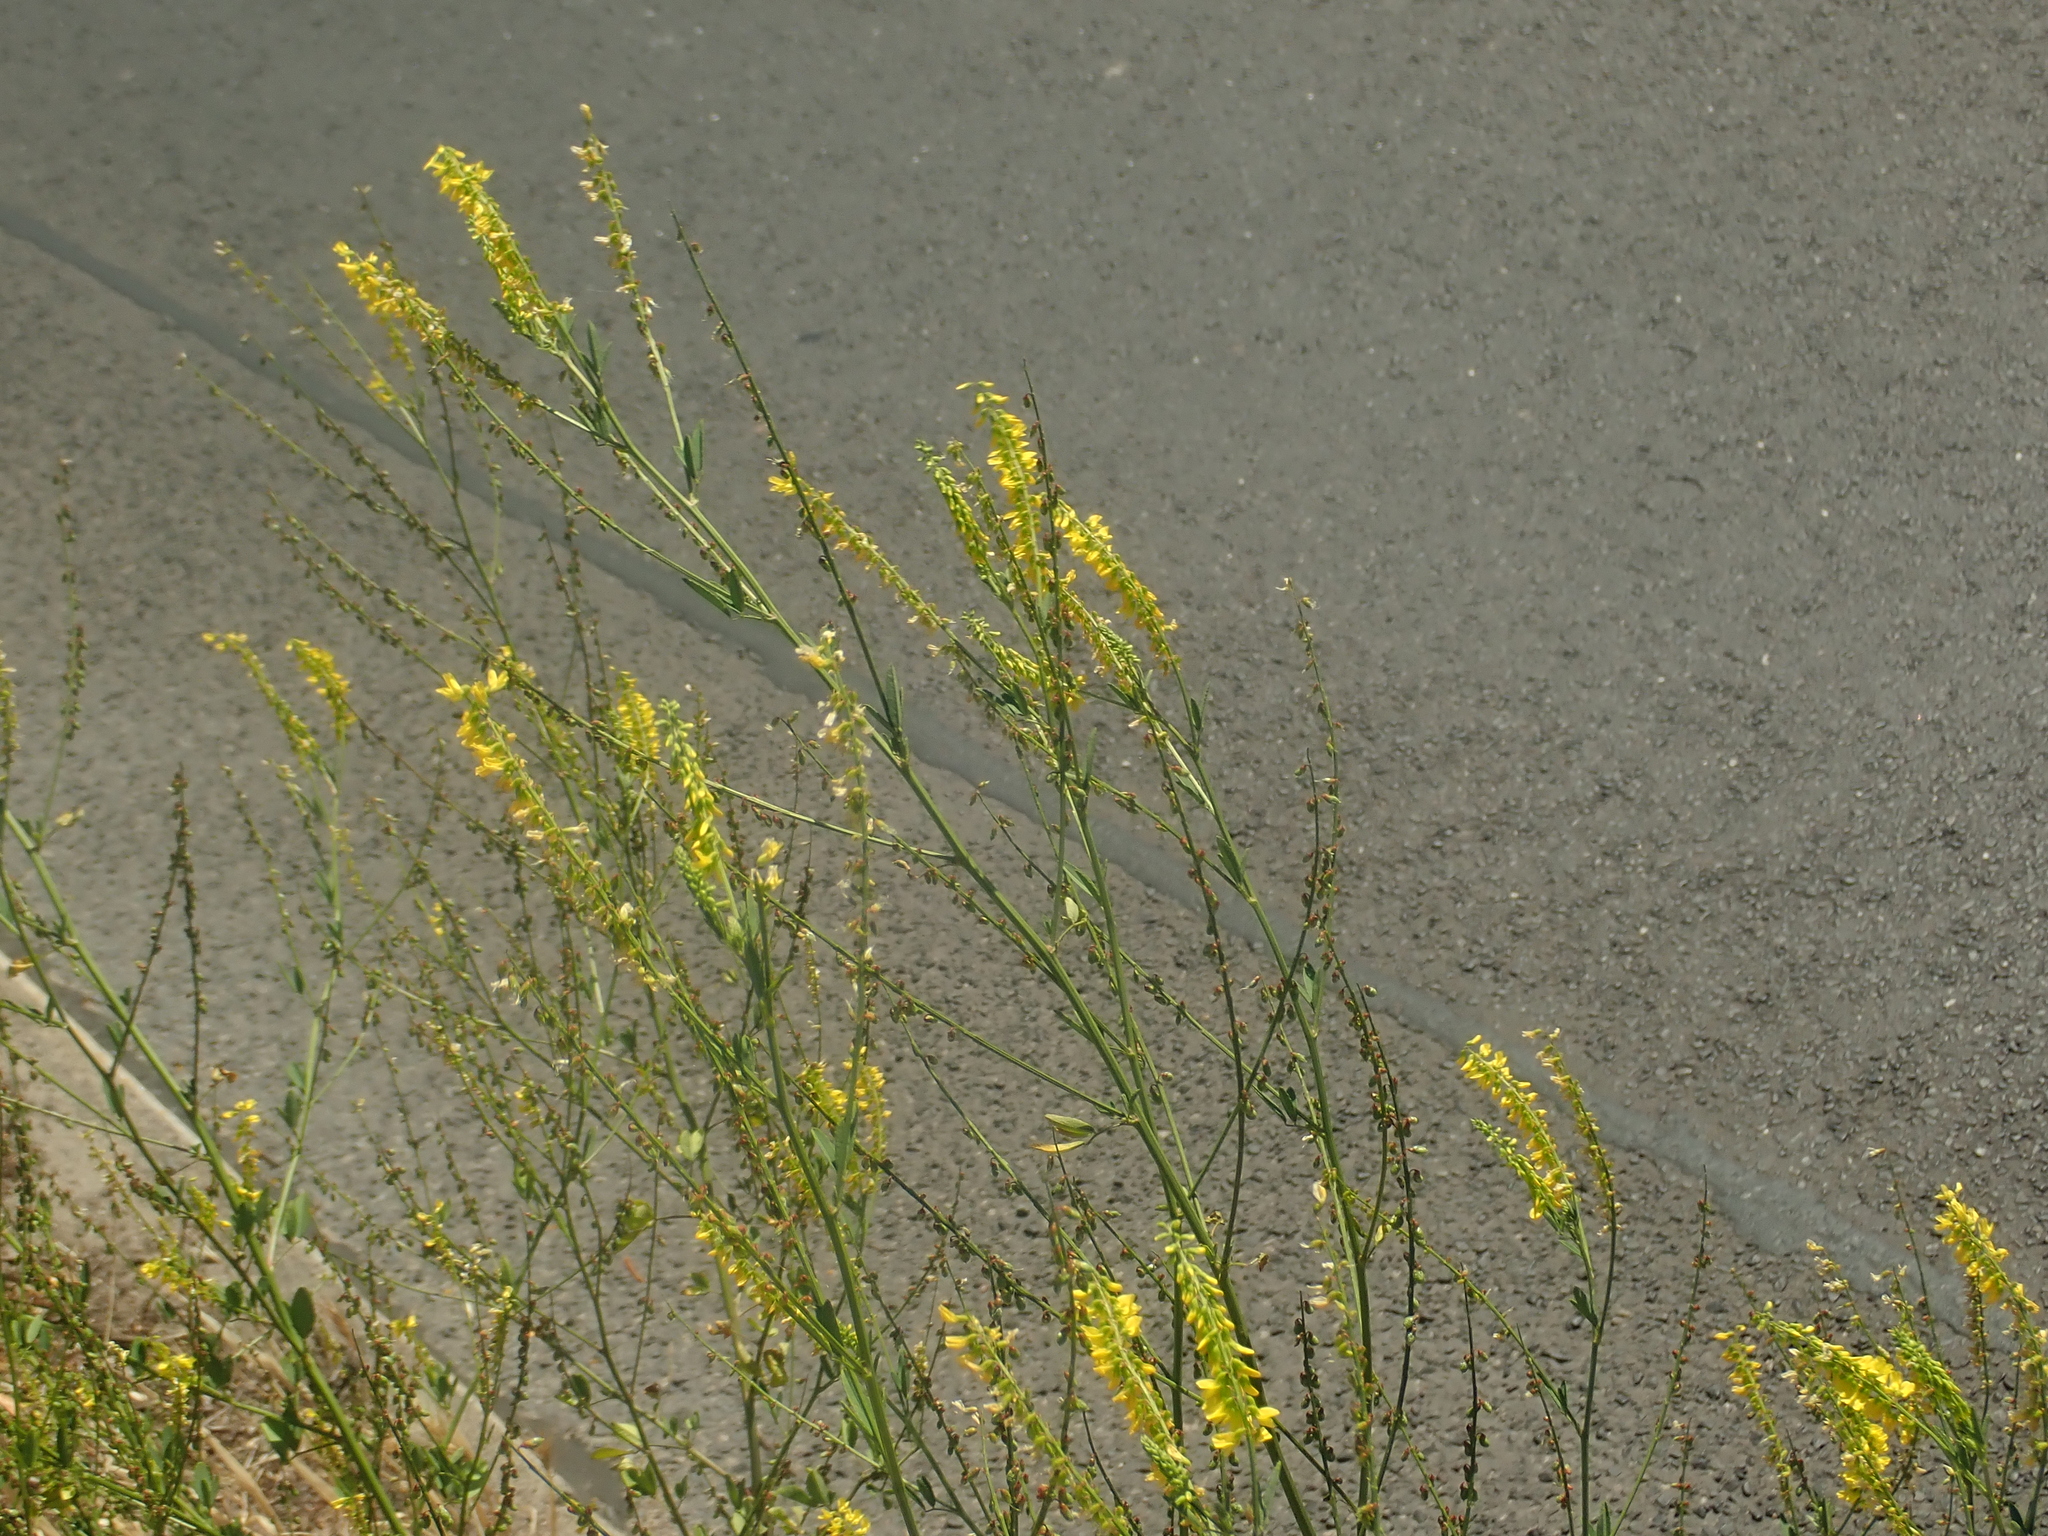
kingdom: Plantae
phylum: Tracheophyta
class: Magnoliopsida
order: Fabales
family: Fabaceae
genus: Melilotus
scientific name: Melilotus officinalis
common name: Sweetclover
